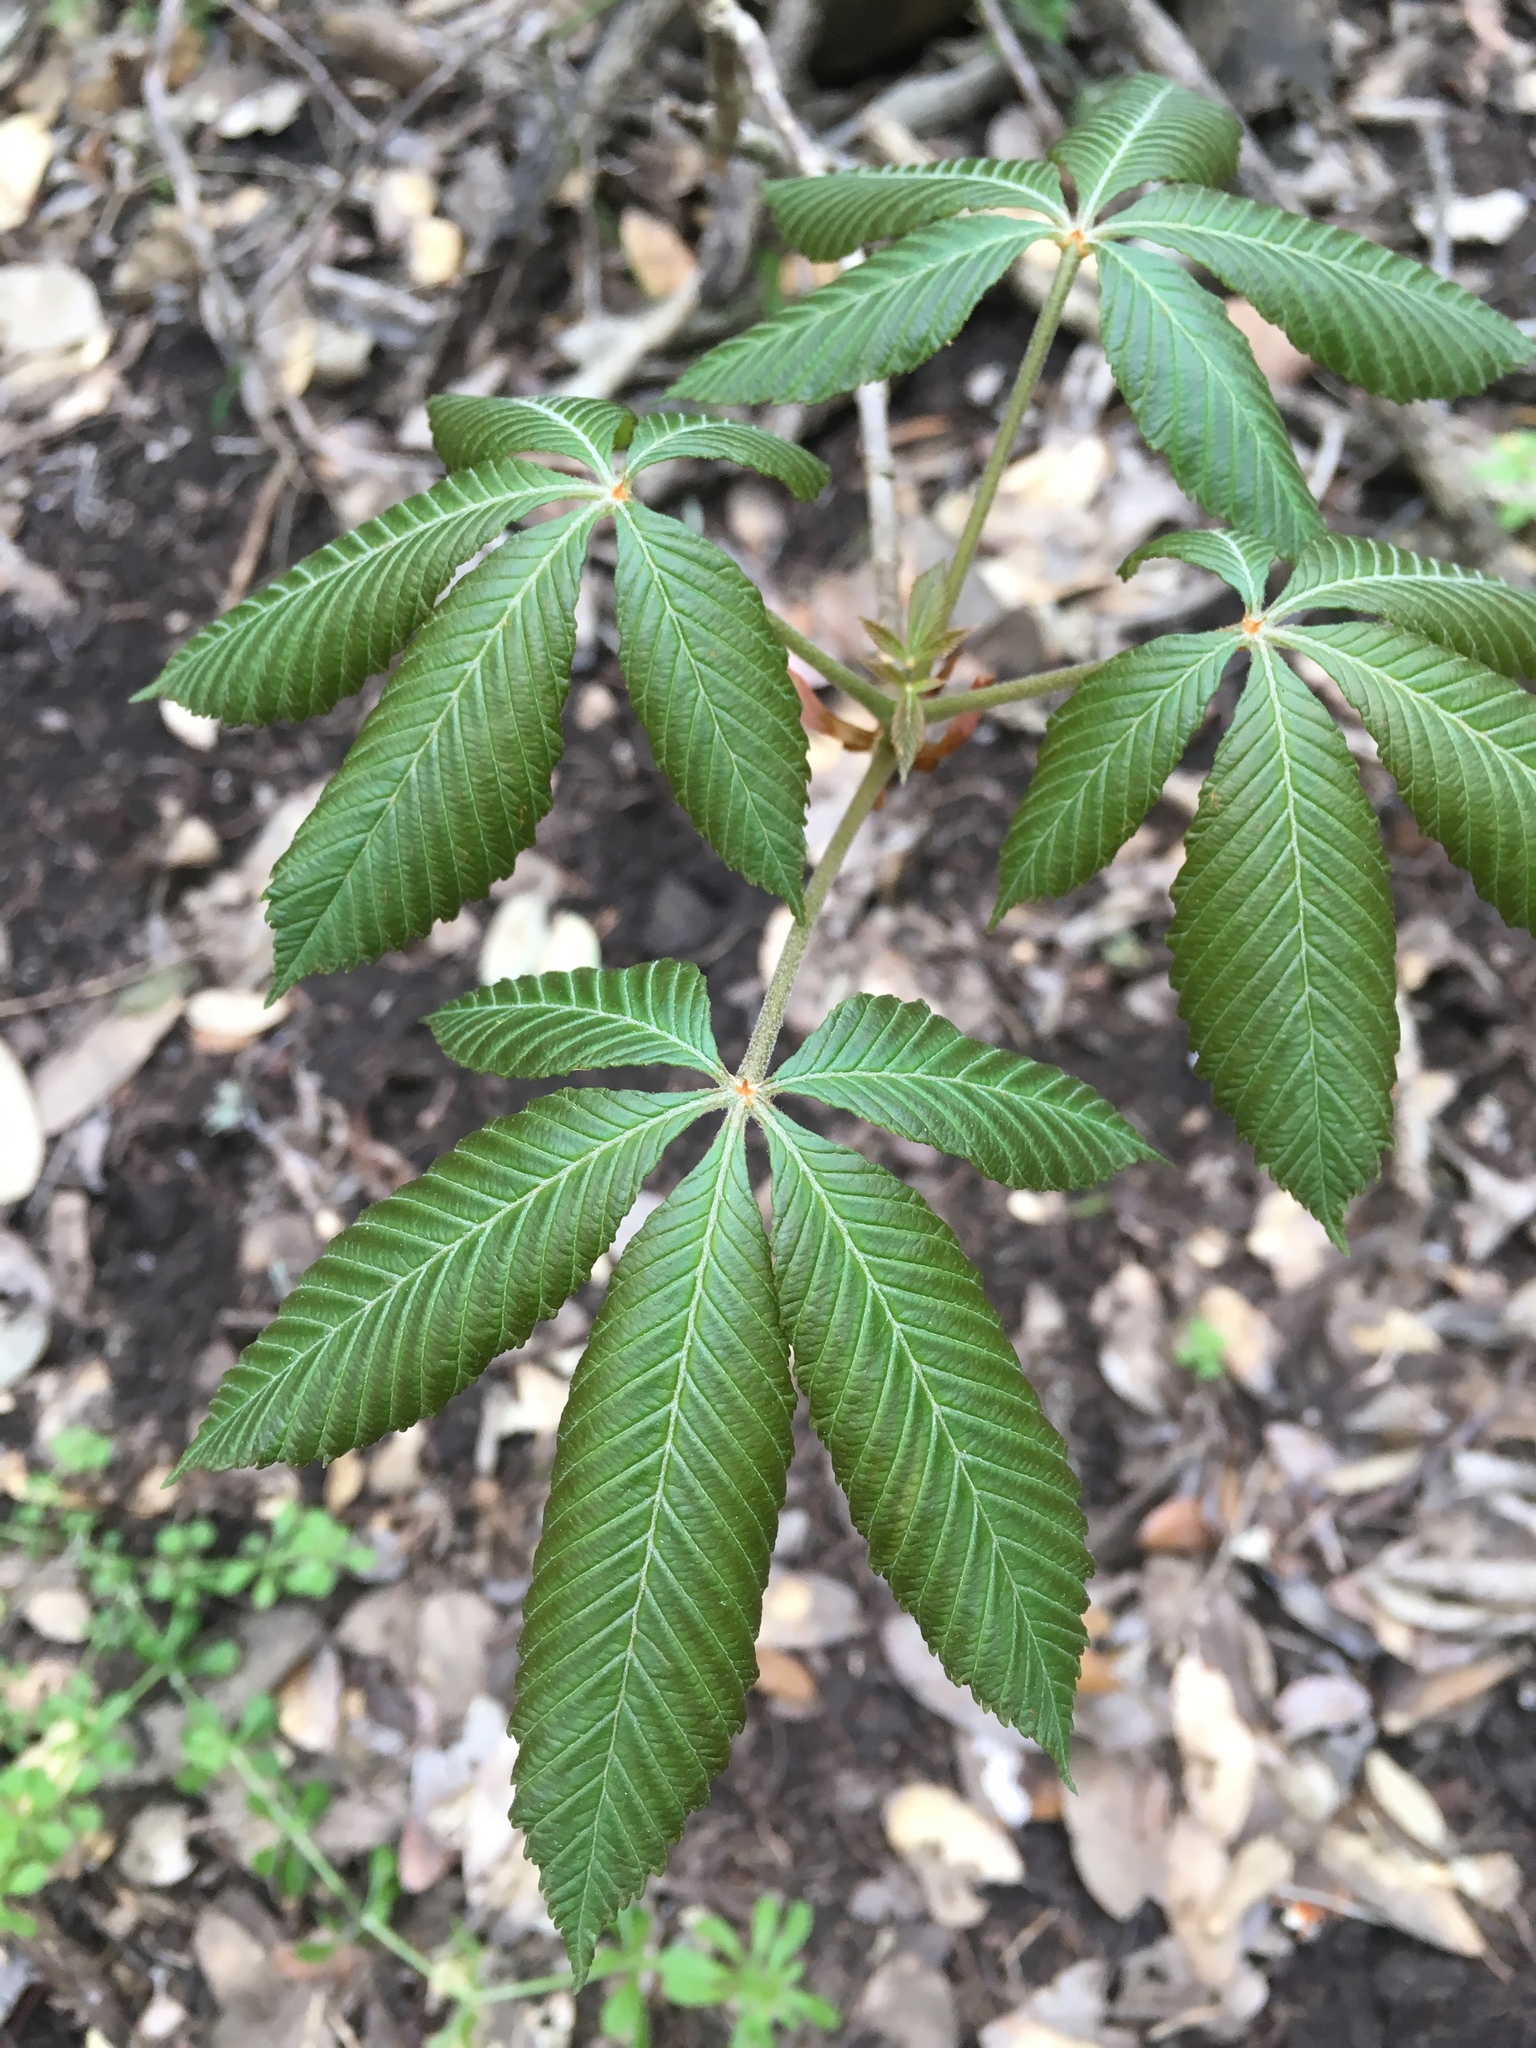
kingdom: Plantae
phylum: Tracheophyta
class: Magnoliopsida
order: Sapindales
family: Sapindaceae
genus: Aesculus
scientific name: Aesculus pavia
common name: Red buckeye
